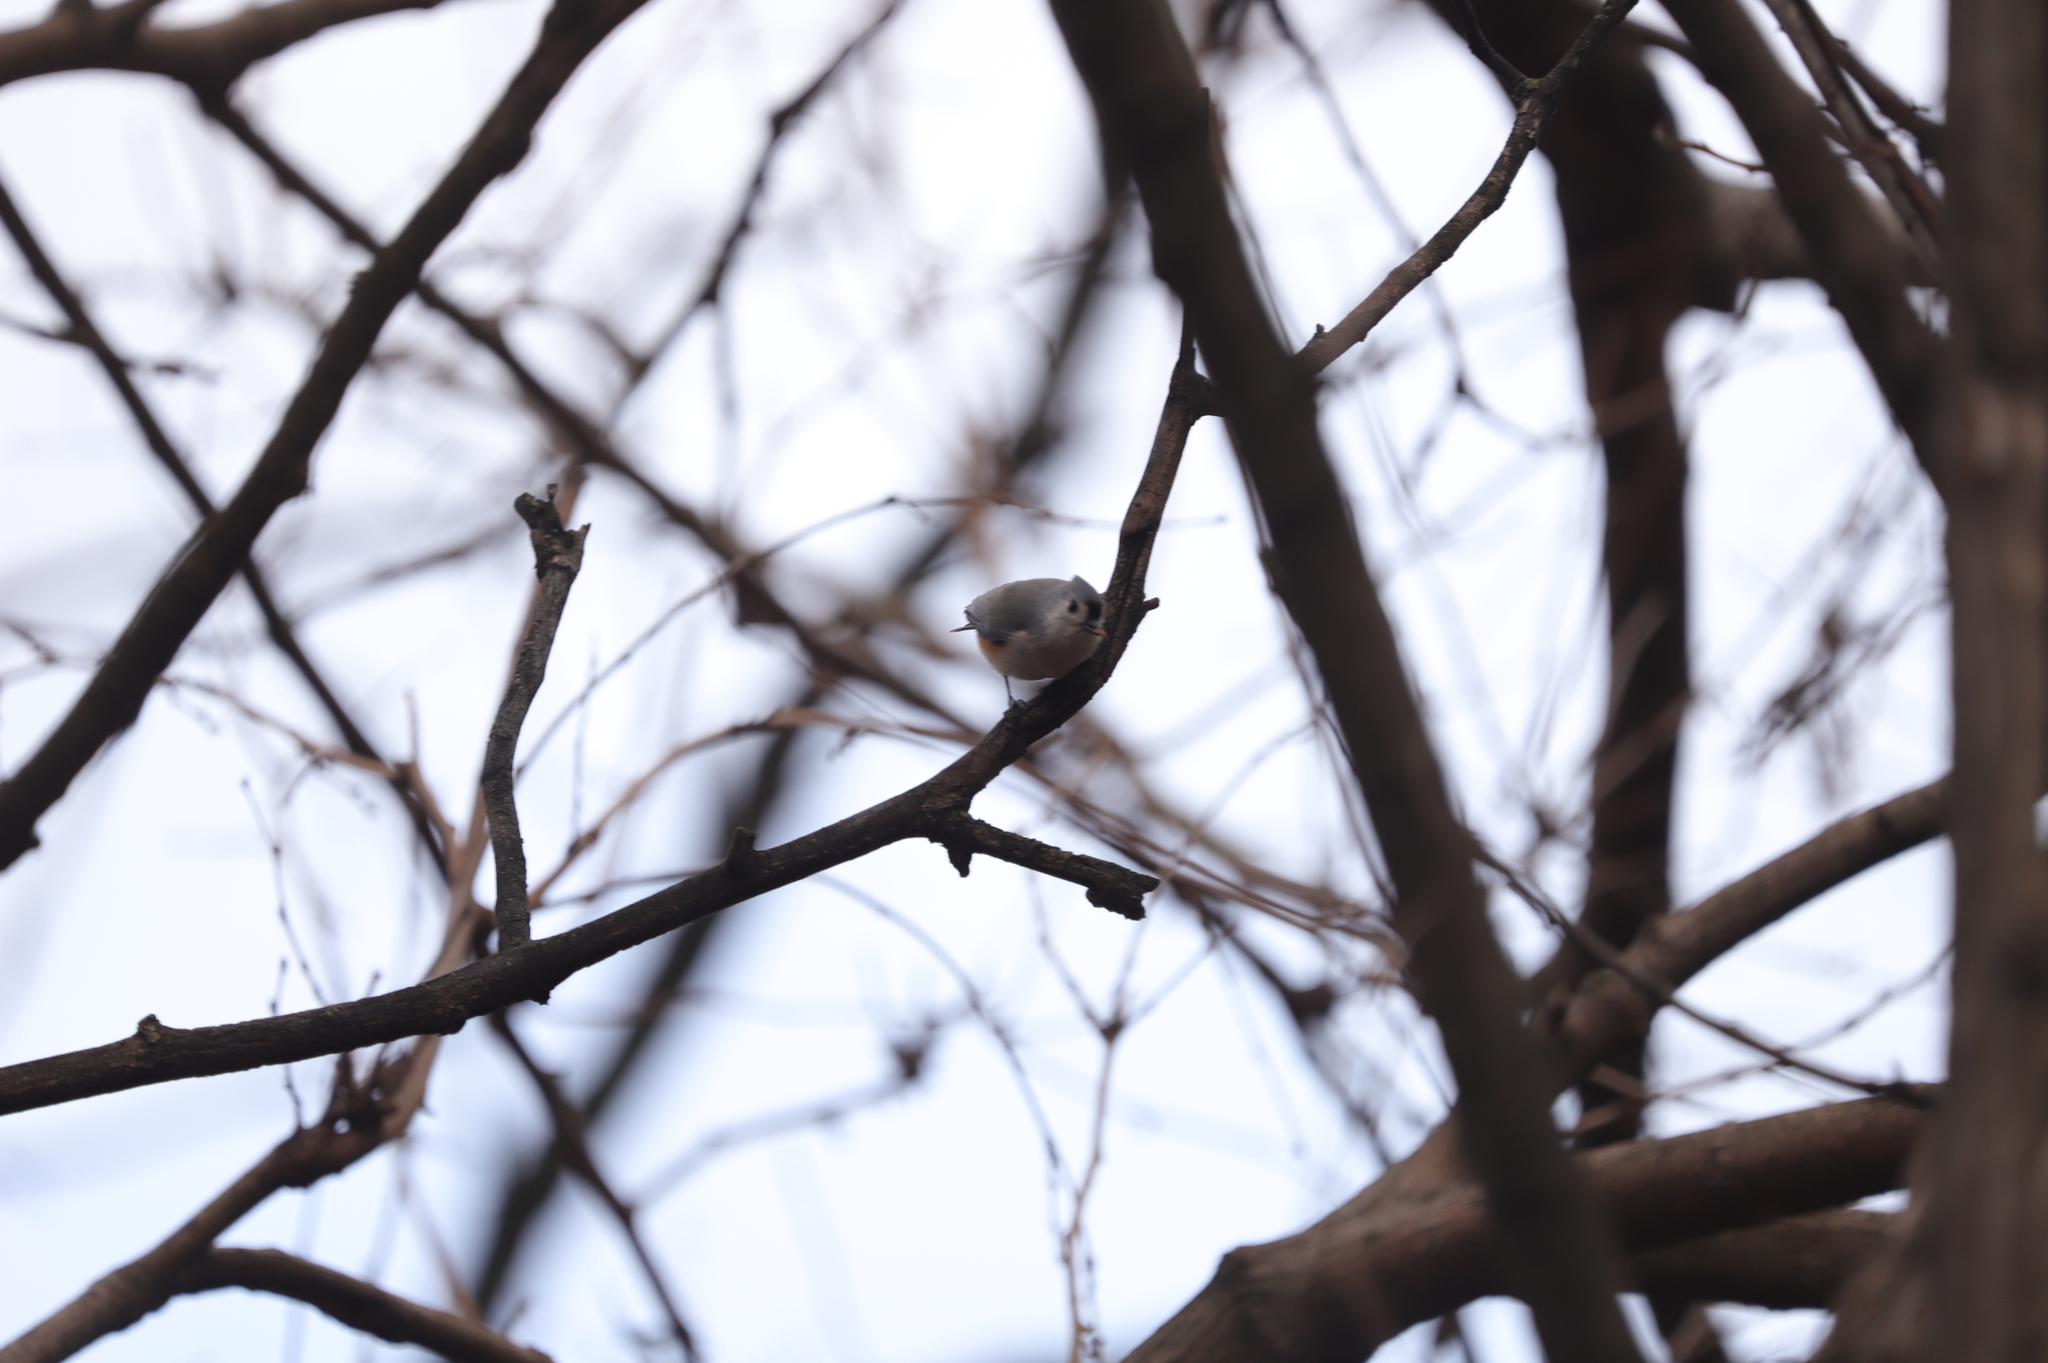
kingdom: Animalia
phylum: Chordata
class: Aves
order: Passeriformes
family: Paridae
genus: Baeolophus
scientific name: Baeolophus bicolor
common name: Tufted titmouse
